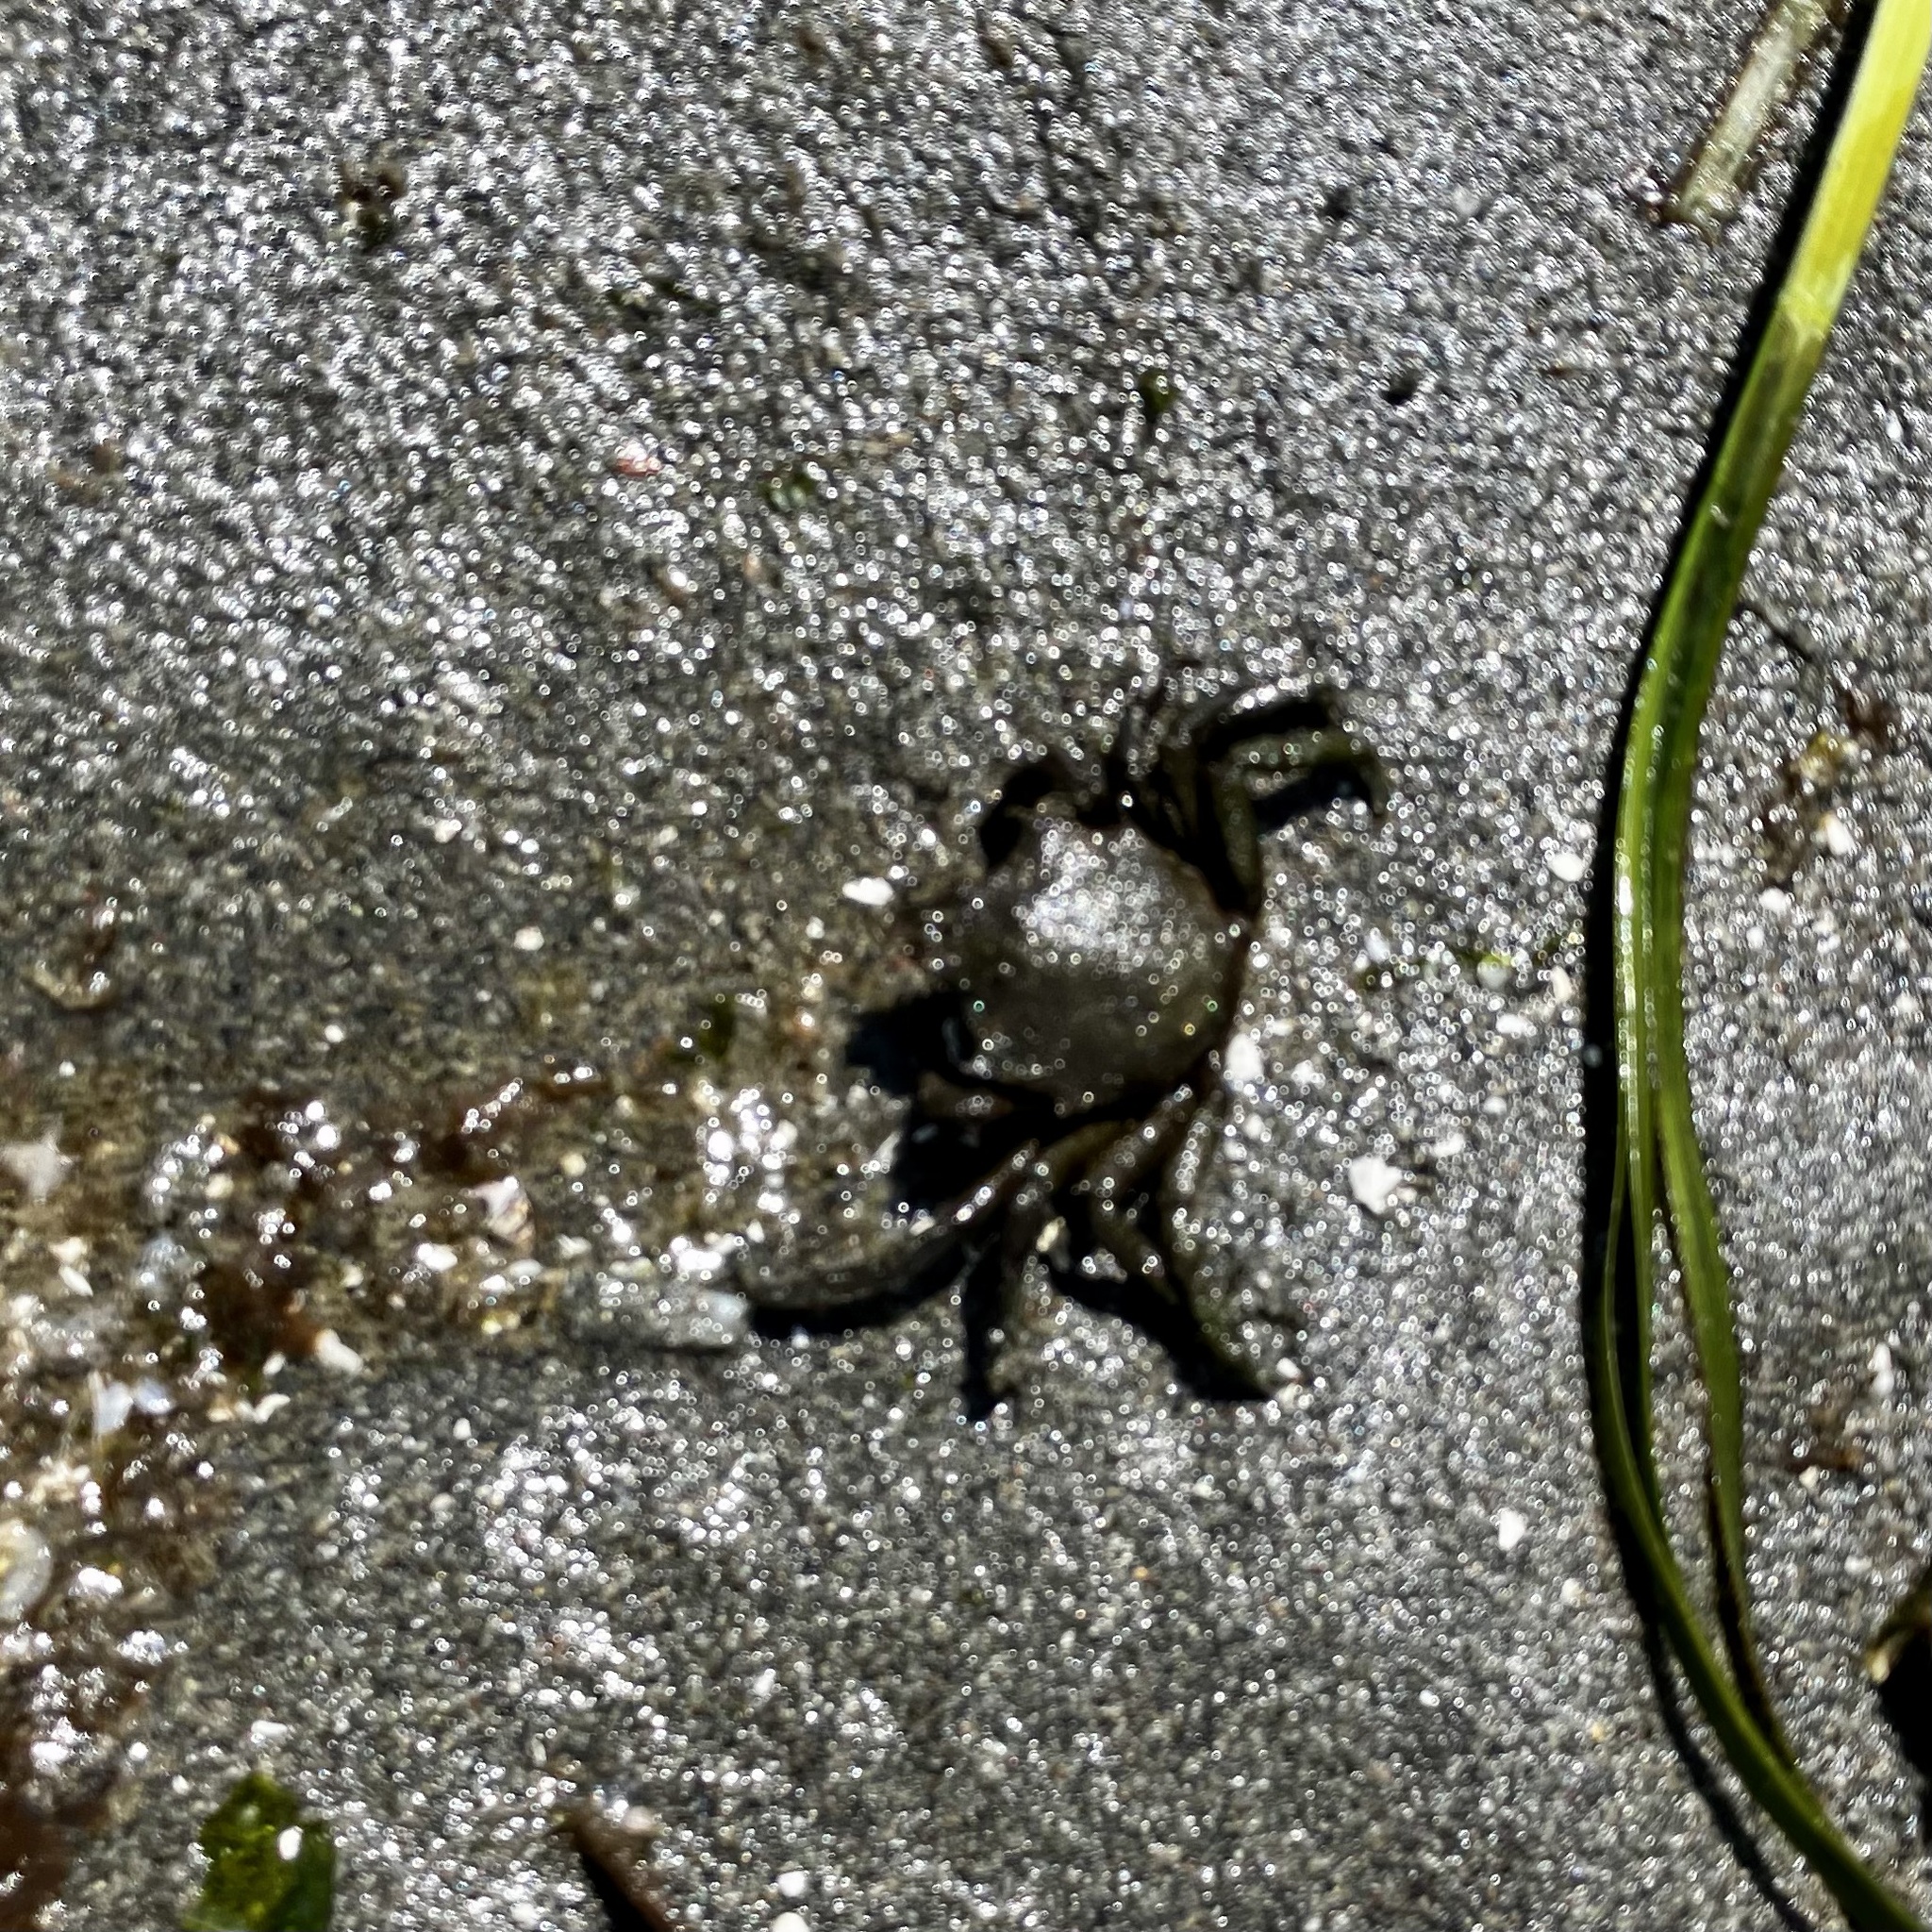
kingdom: Animalia
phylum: Arthropoda
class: Malacostraca
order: Decapoda
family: Epialtidae
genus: Pugettia
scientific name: Pugettia producta
